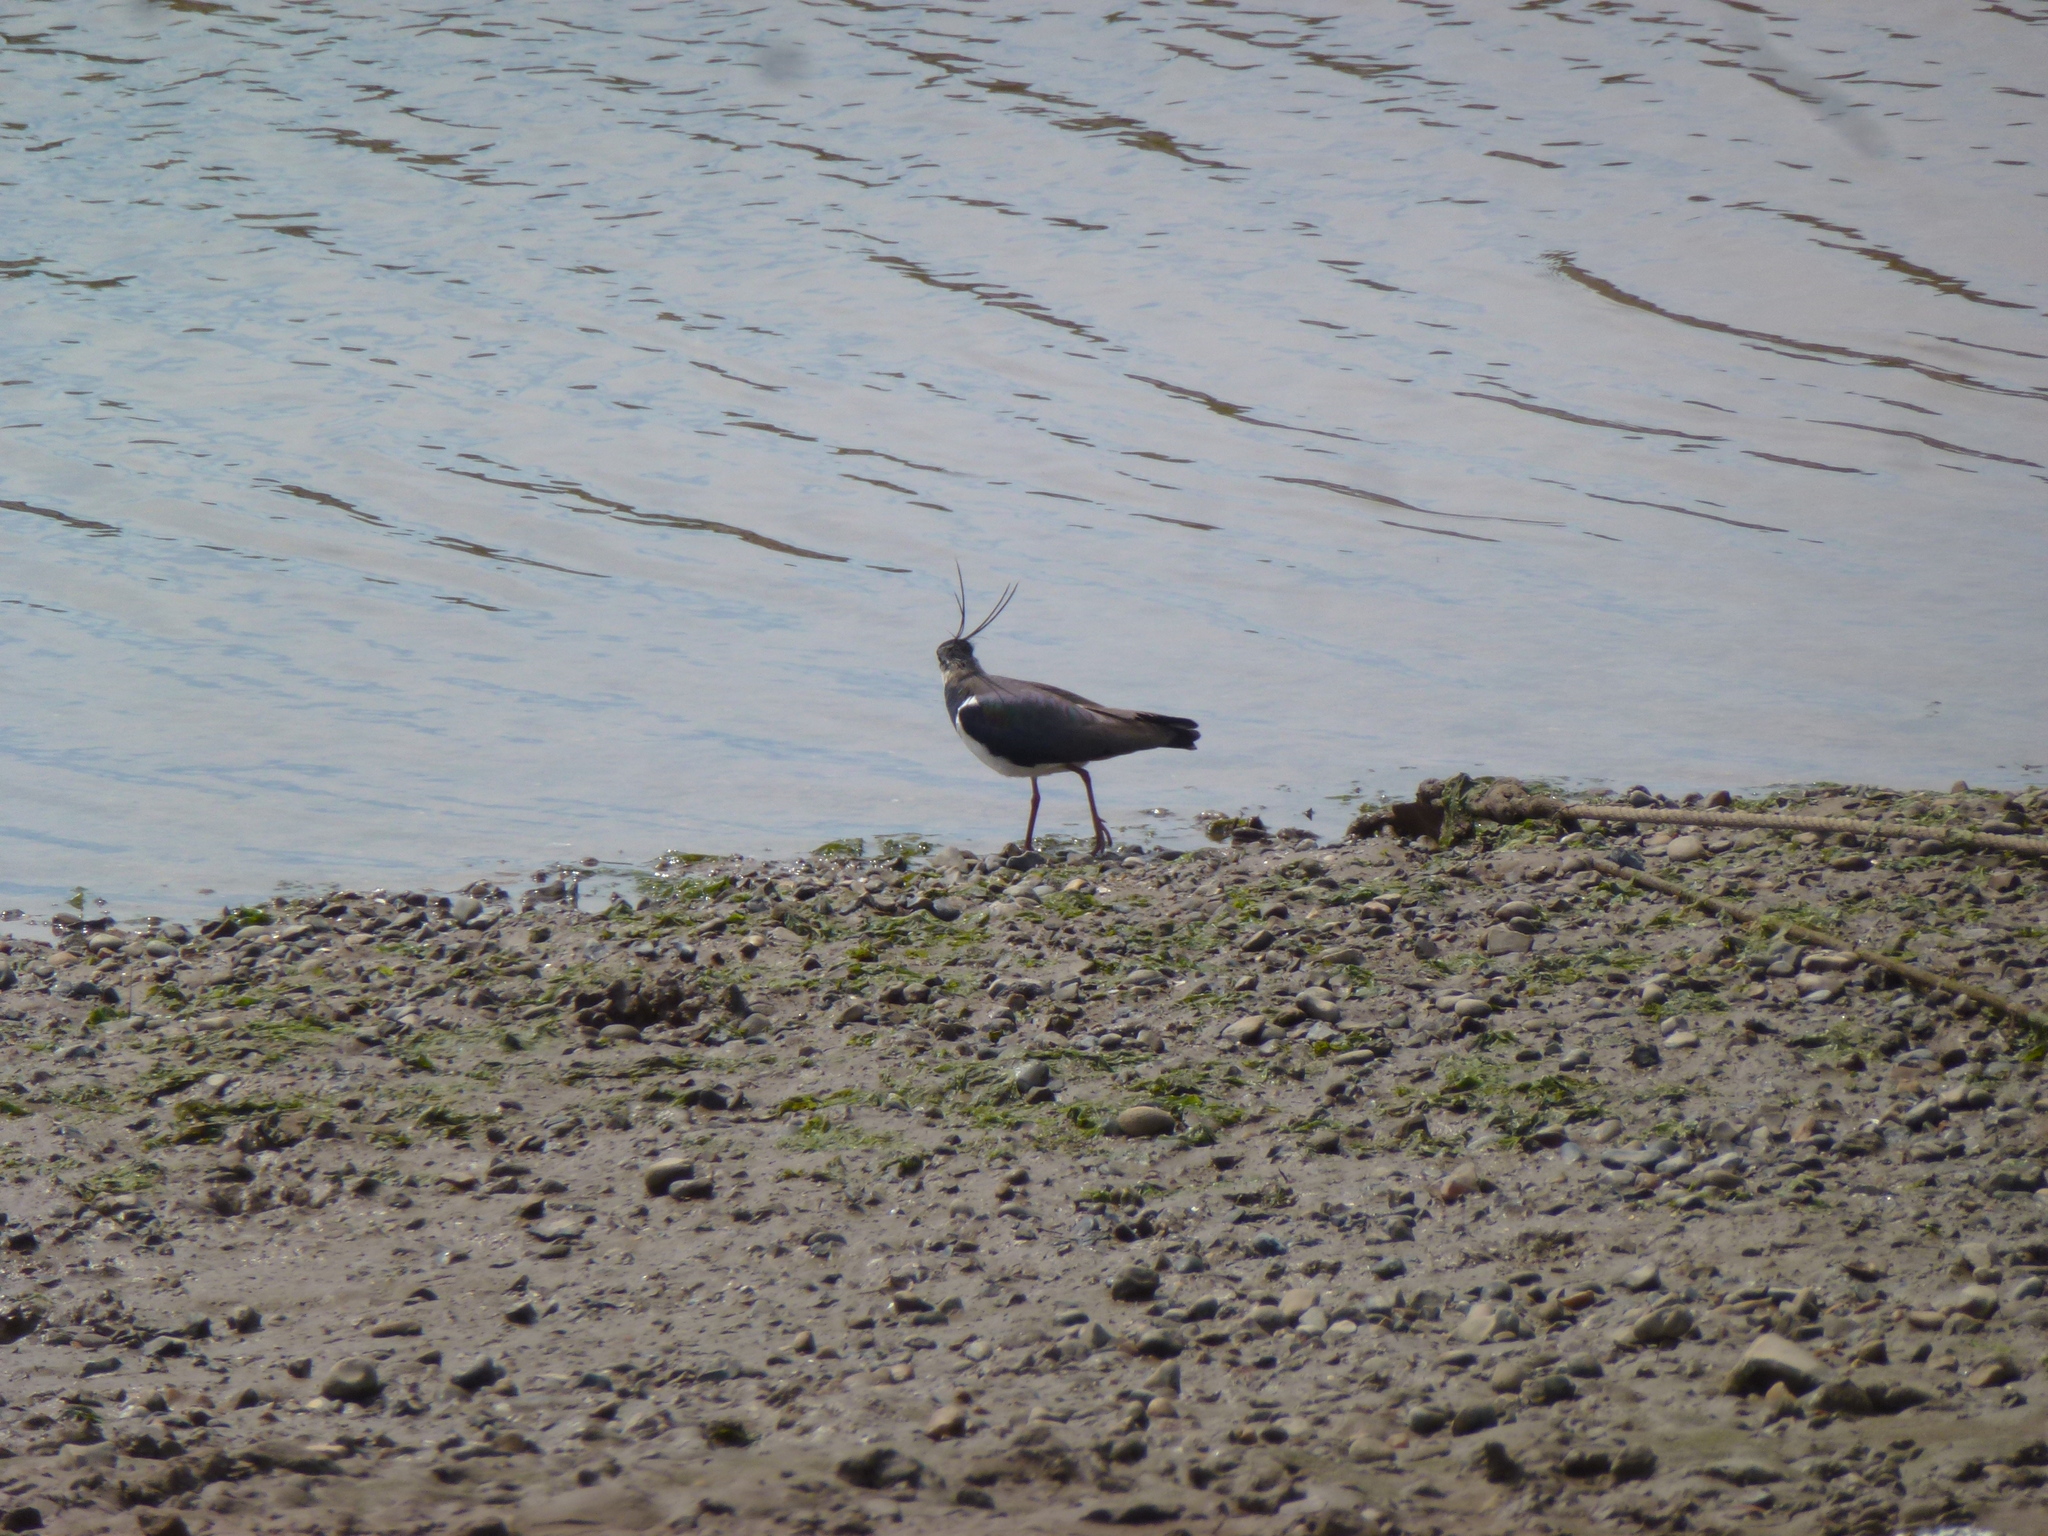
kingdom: Animalia
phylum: Chordata
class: Aves
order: Charadriiformes
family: Charadriidae
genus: Vanellus
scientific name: Vanellus vanellus
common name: Northern lapwing
